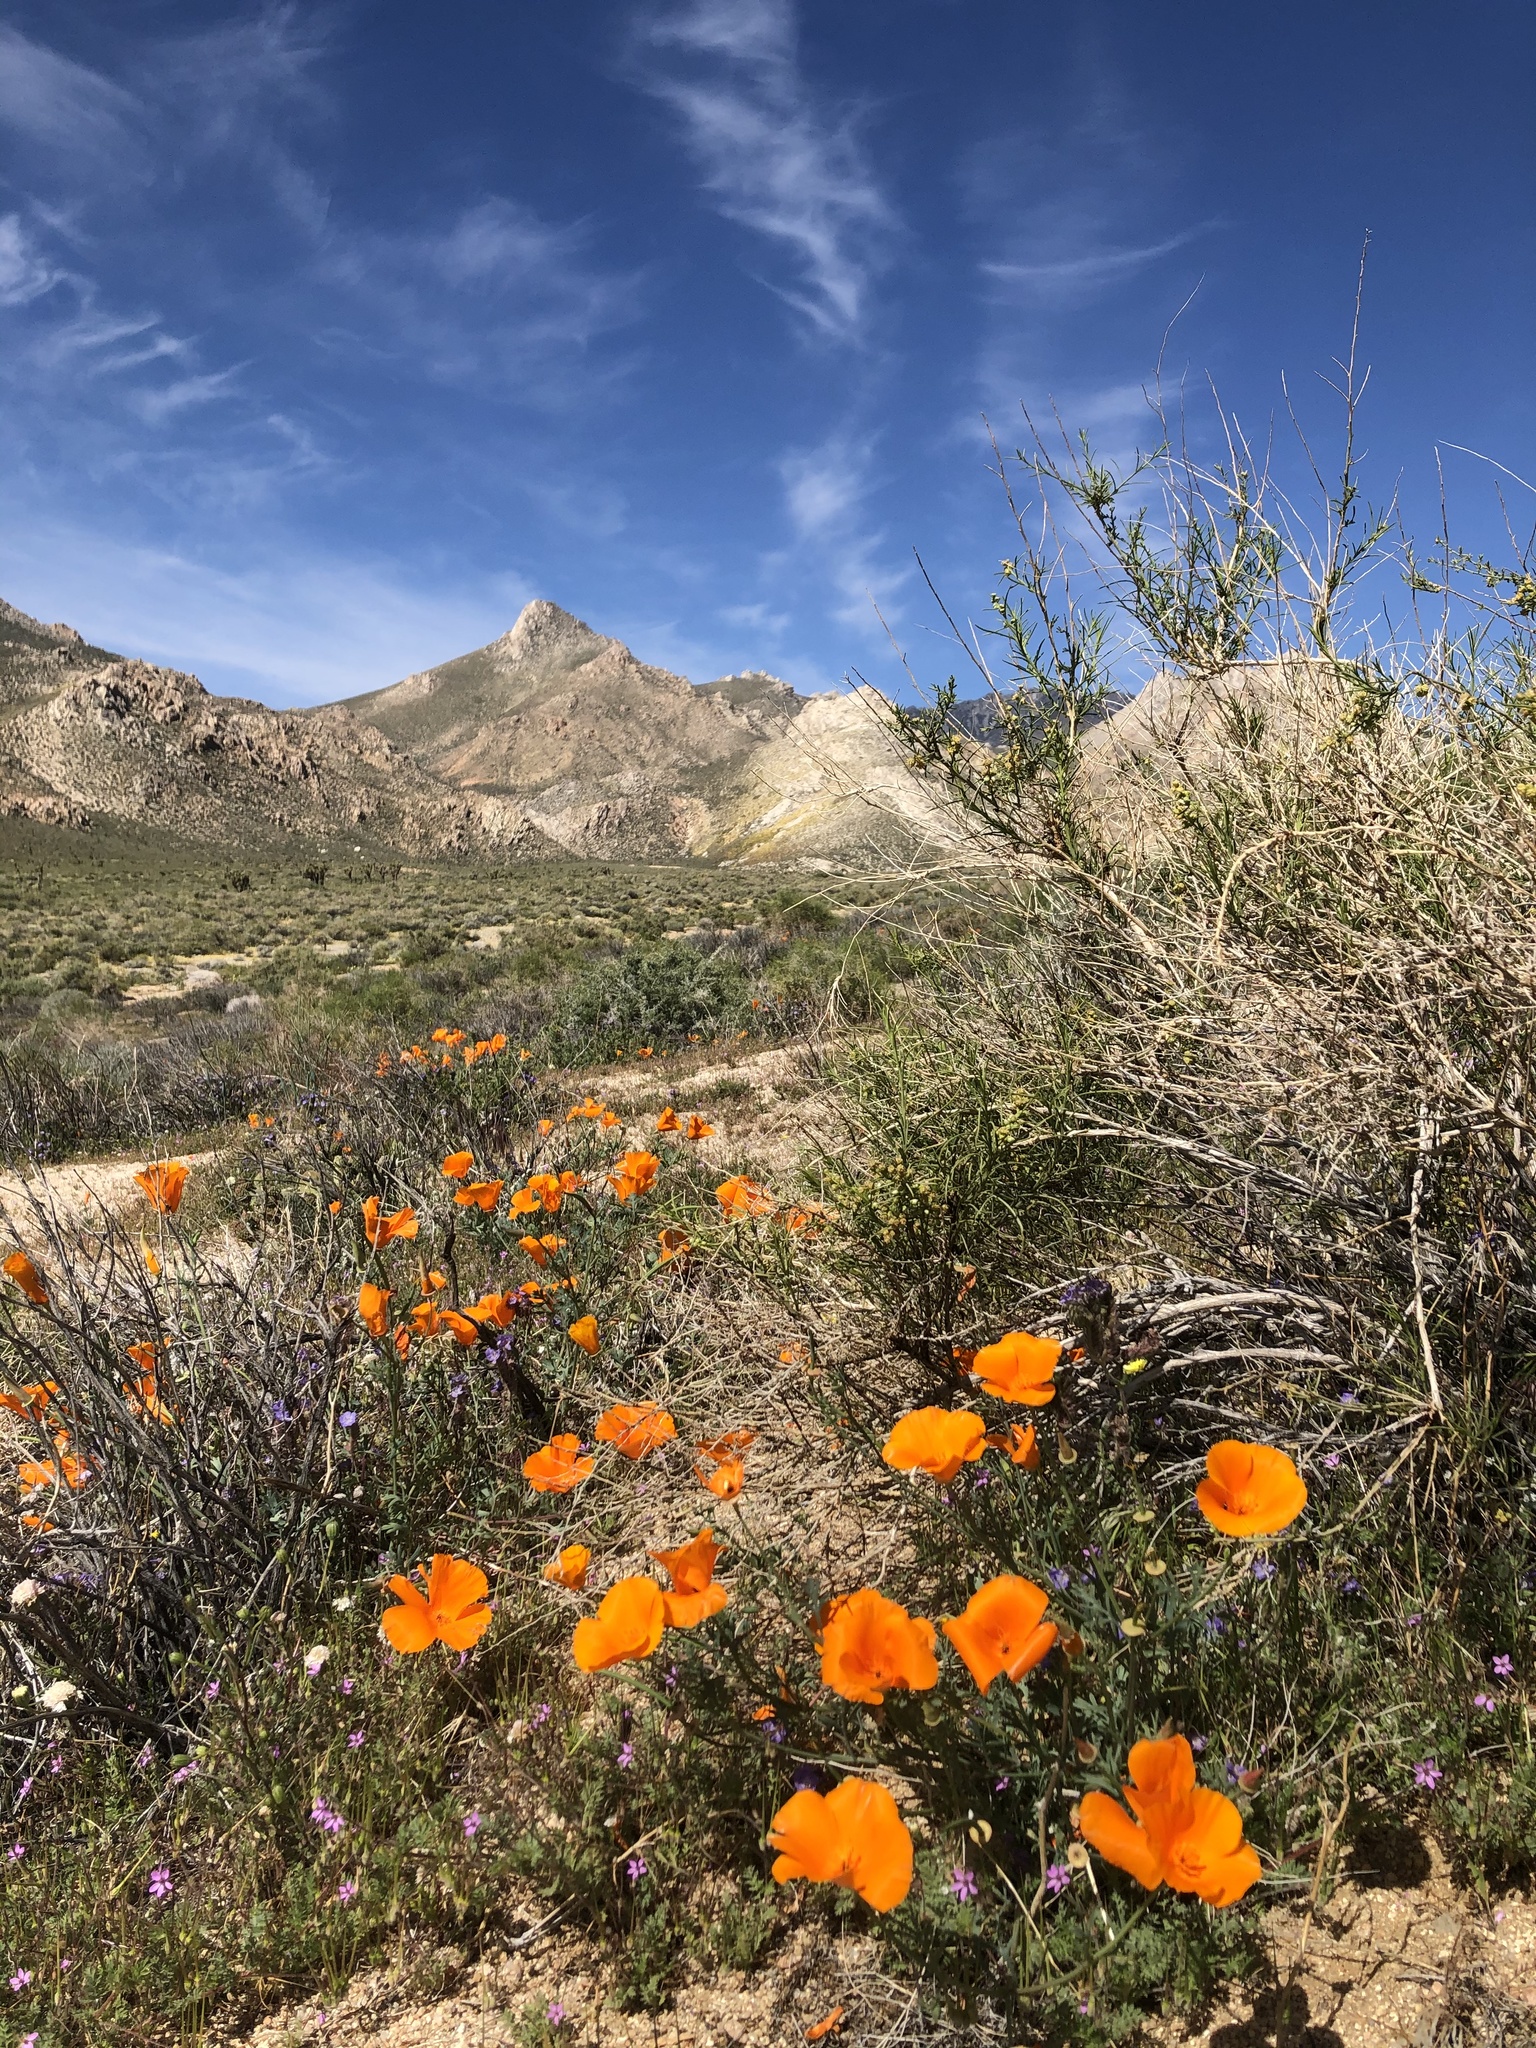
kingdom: Plantae
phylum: Tracheophyta
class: Magnoliopsida
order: Ranunculales
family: Papaveraceae
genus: Eschscholzia
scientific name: Eschscholzia californica
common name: California poppy
